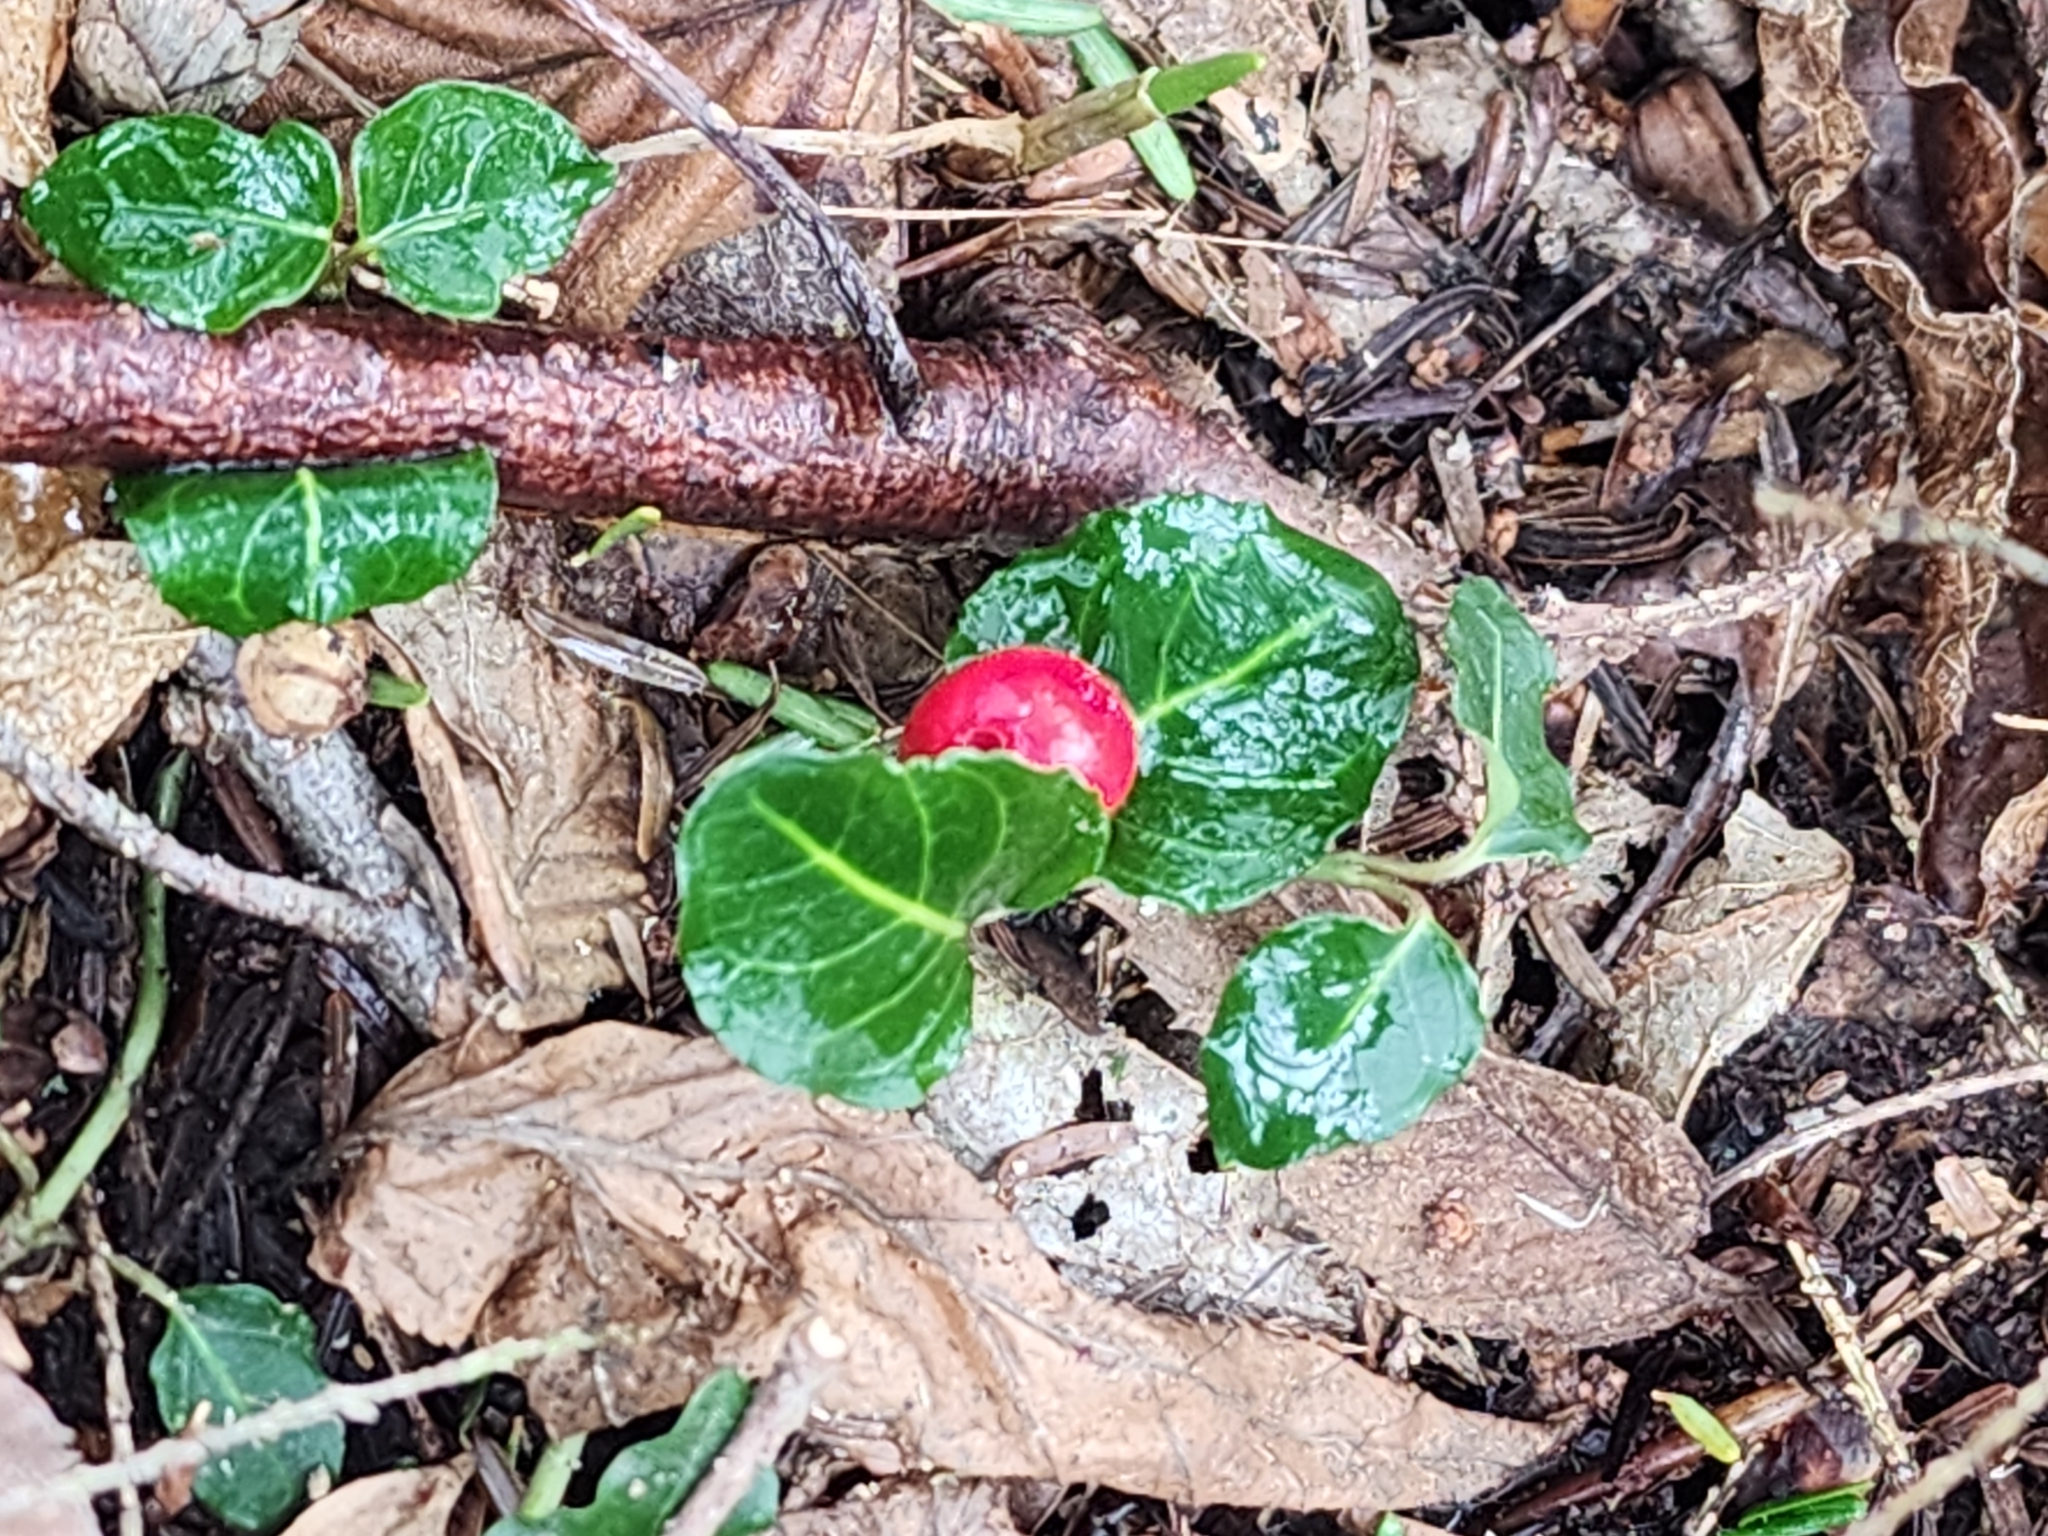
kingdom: Plantae
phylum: Tracheophyta
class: Magnoliopsida
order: Gentianales
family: Rubiaceae
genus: Mitchella
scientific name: Mitchella repens
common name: Partridge-berry
